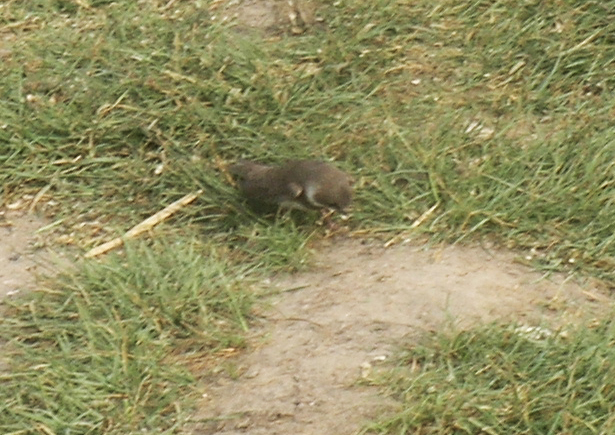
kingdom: Animalia
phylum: Chordata
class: Aves
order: Passeriformes
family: Hirundinidae
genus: Riparia
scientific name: Riparia riparia
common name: Sand martin
